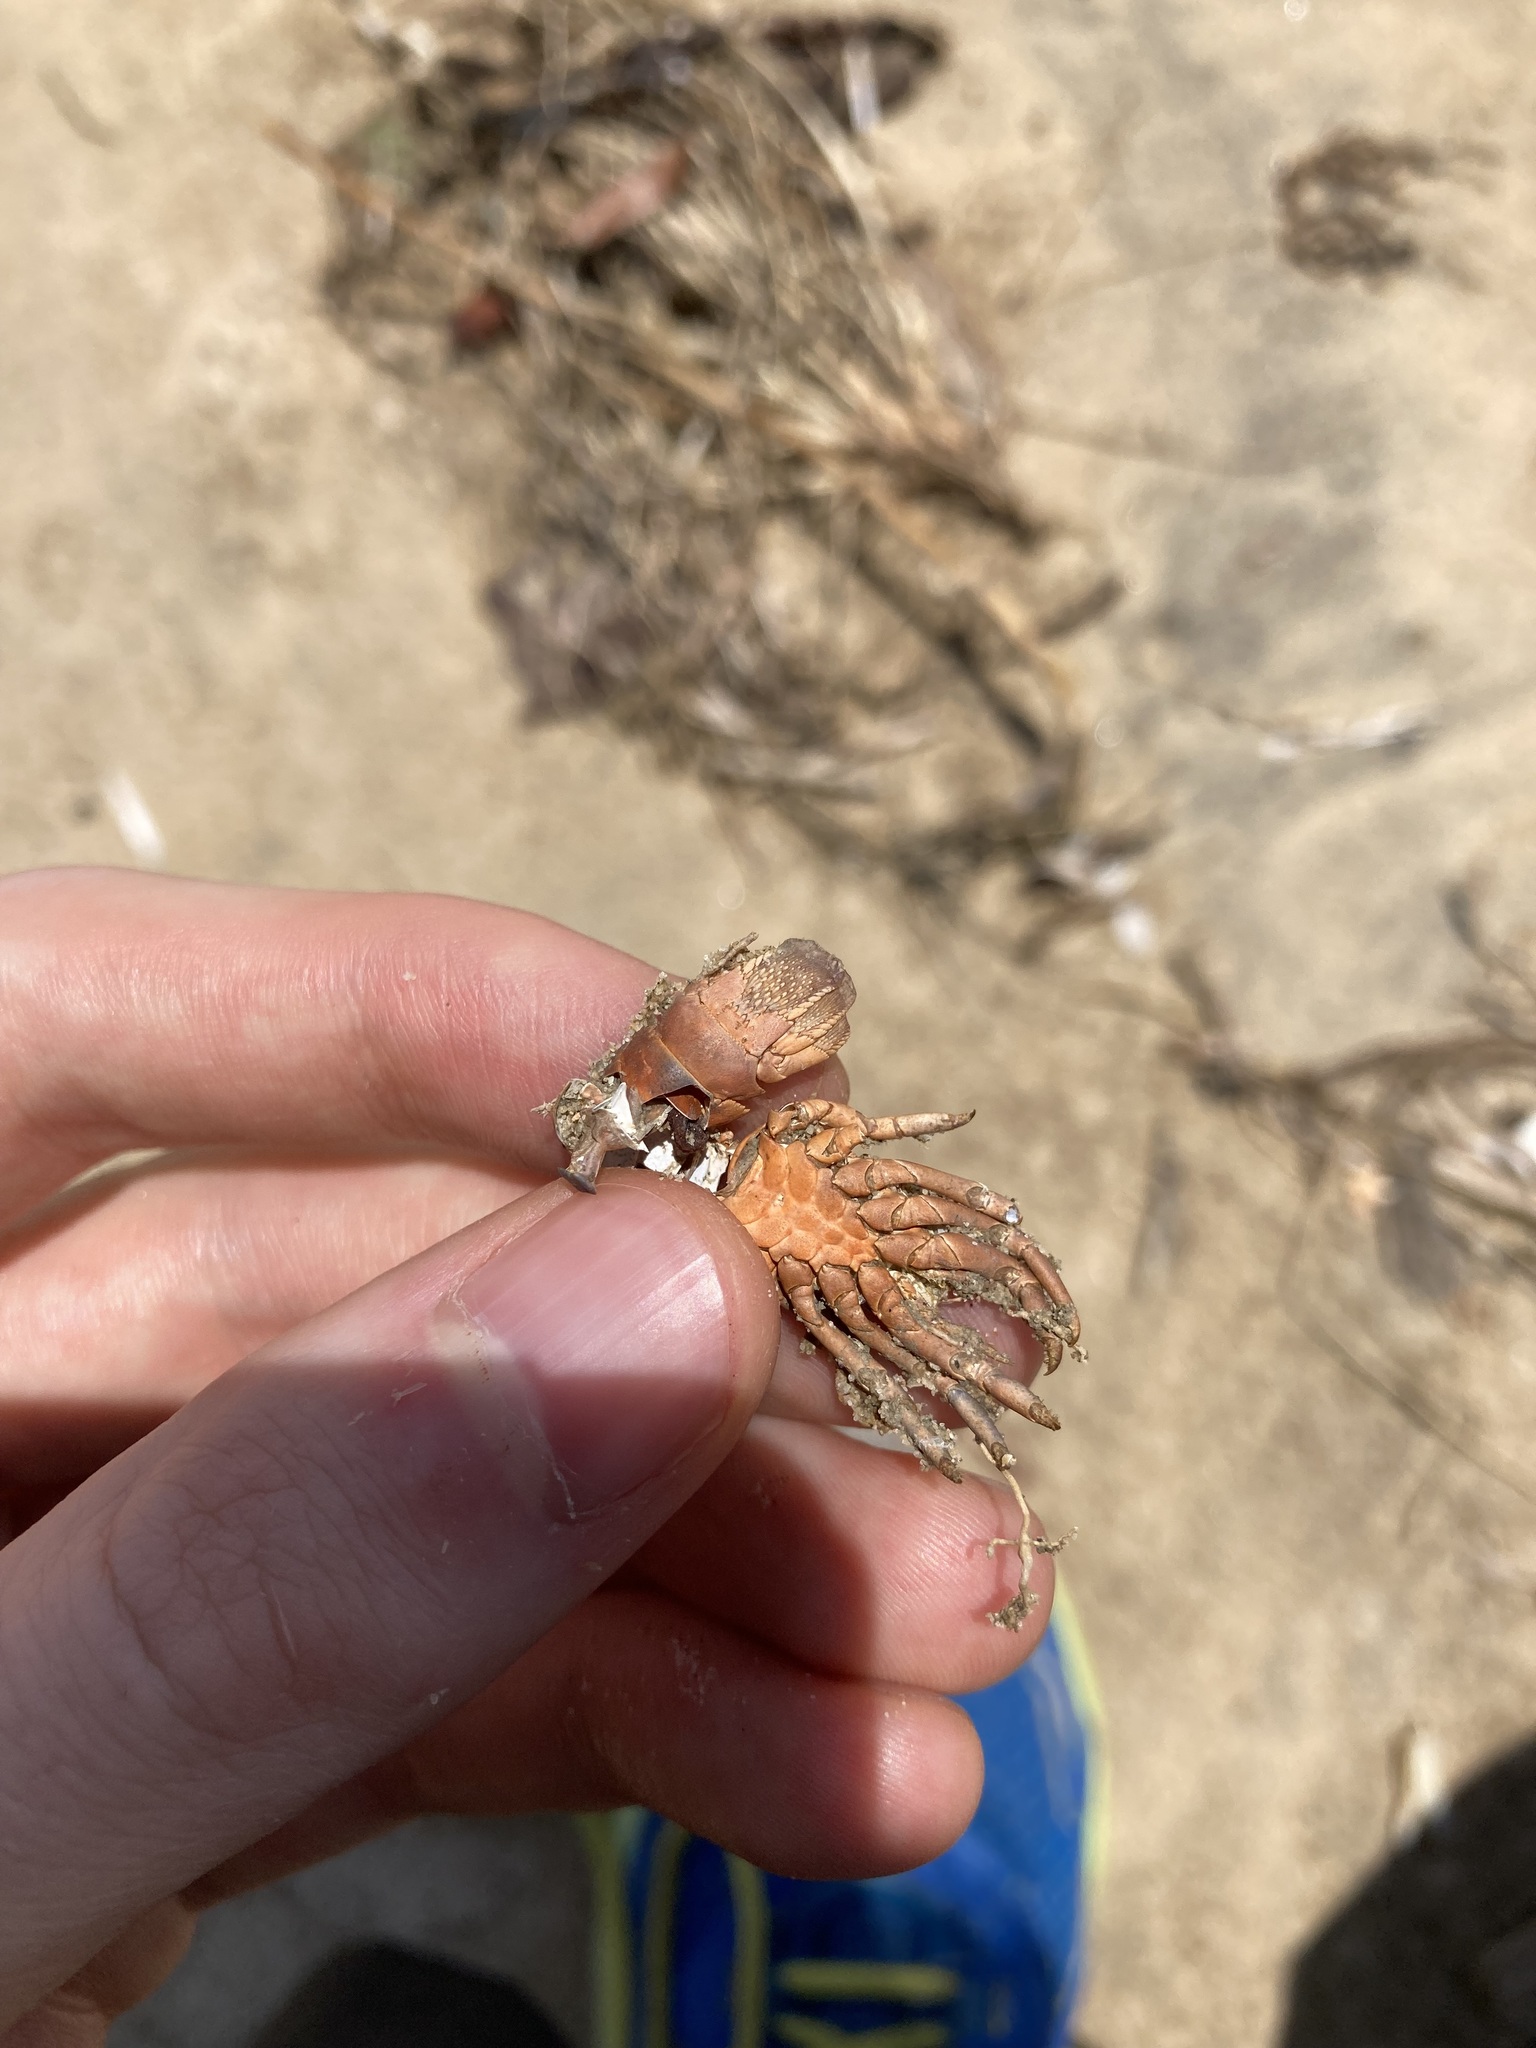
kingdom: Animalia
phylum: Arthropoda
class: Malacostraca
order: Decapoda
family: Palinuridae
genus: Sagmariasus
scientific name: Sagmariasus verreauxi
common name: Green rock lobster
